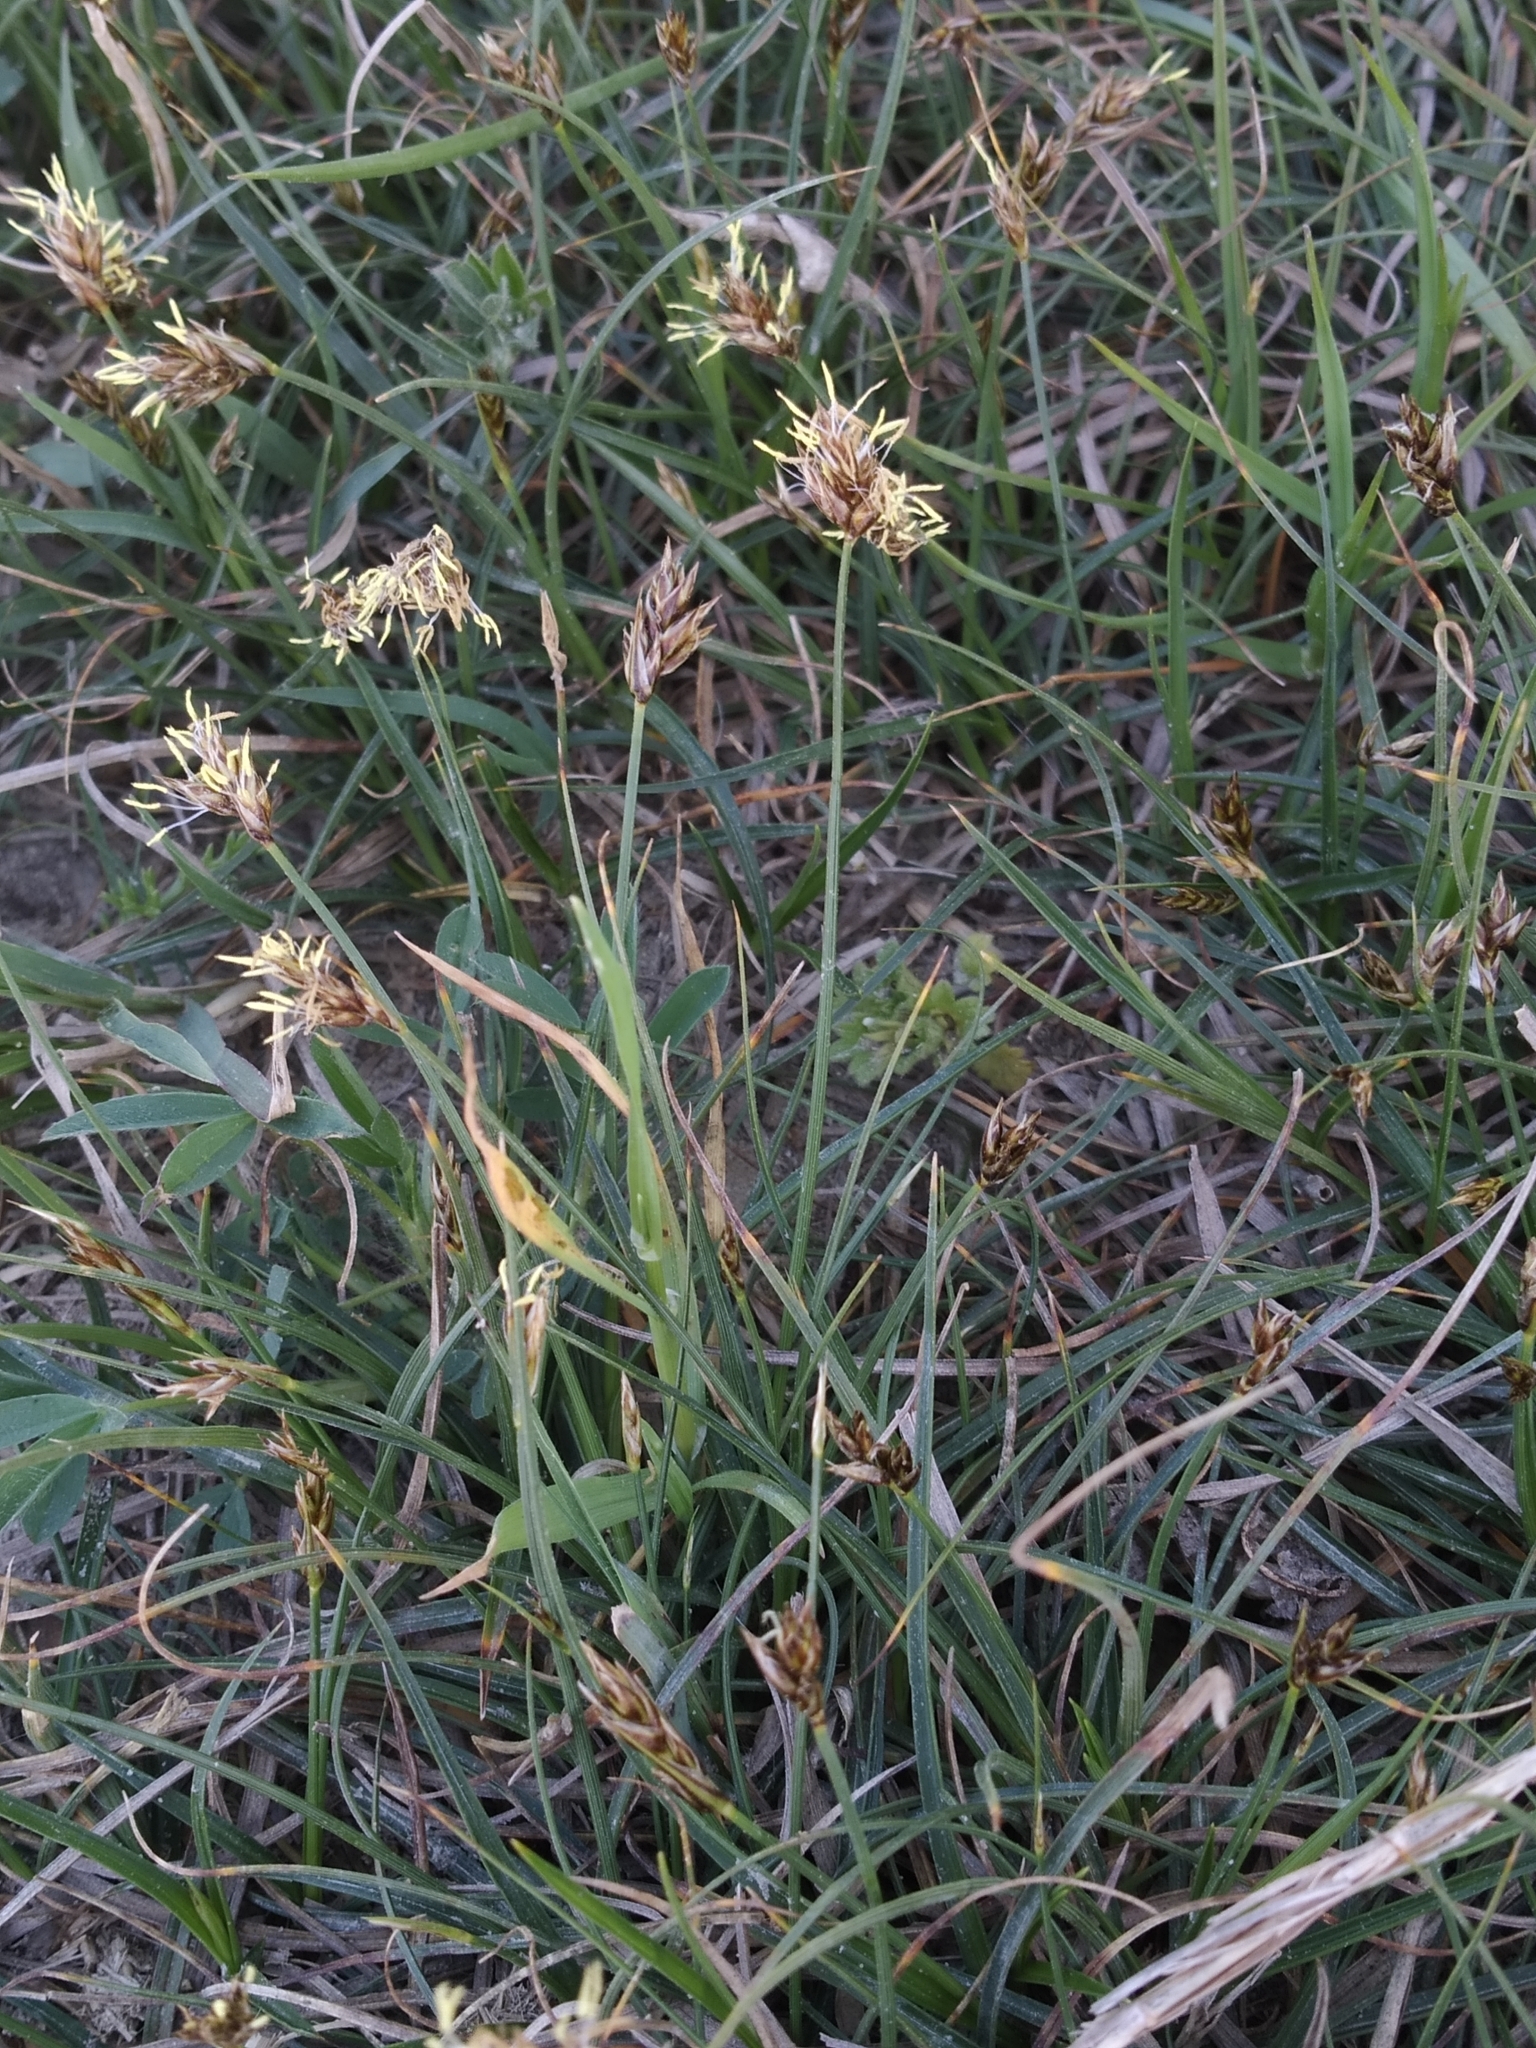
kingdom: Plantae
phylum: Tracheophyta
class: Liliopsida
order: Poales
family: Cyperaceae
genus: Carex
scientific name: Carex divisa
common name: Divided sedge
